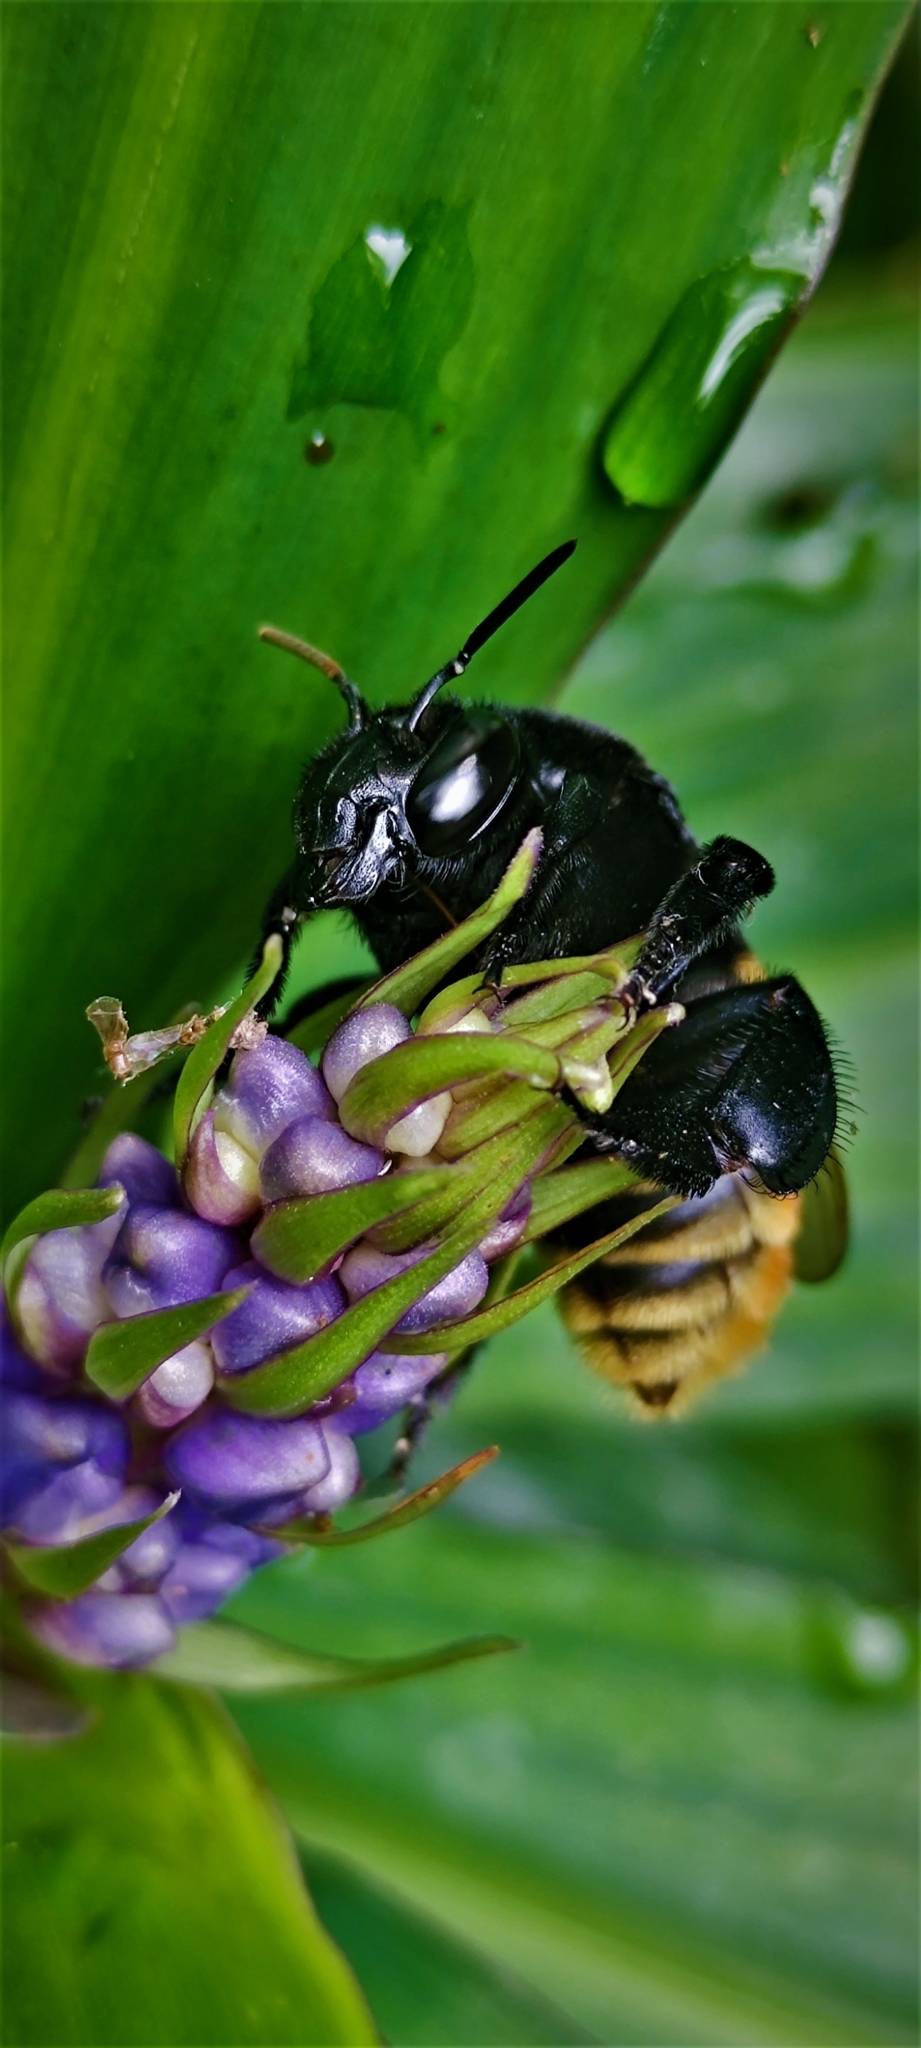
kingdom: Animalia
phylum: Arthropoda
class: Insecta
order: Hymenoptera
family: Apidae
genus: Eulaema
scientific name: Eulaema cingulata
